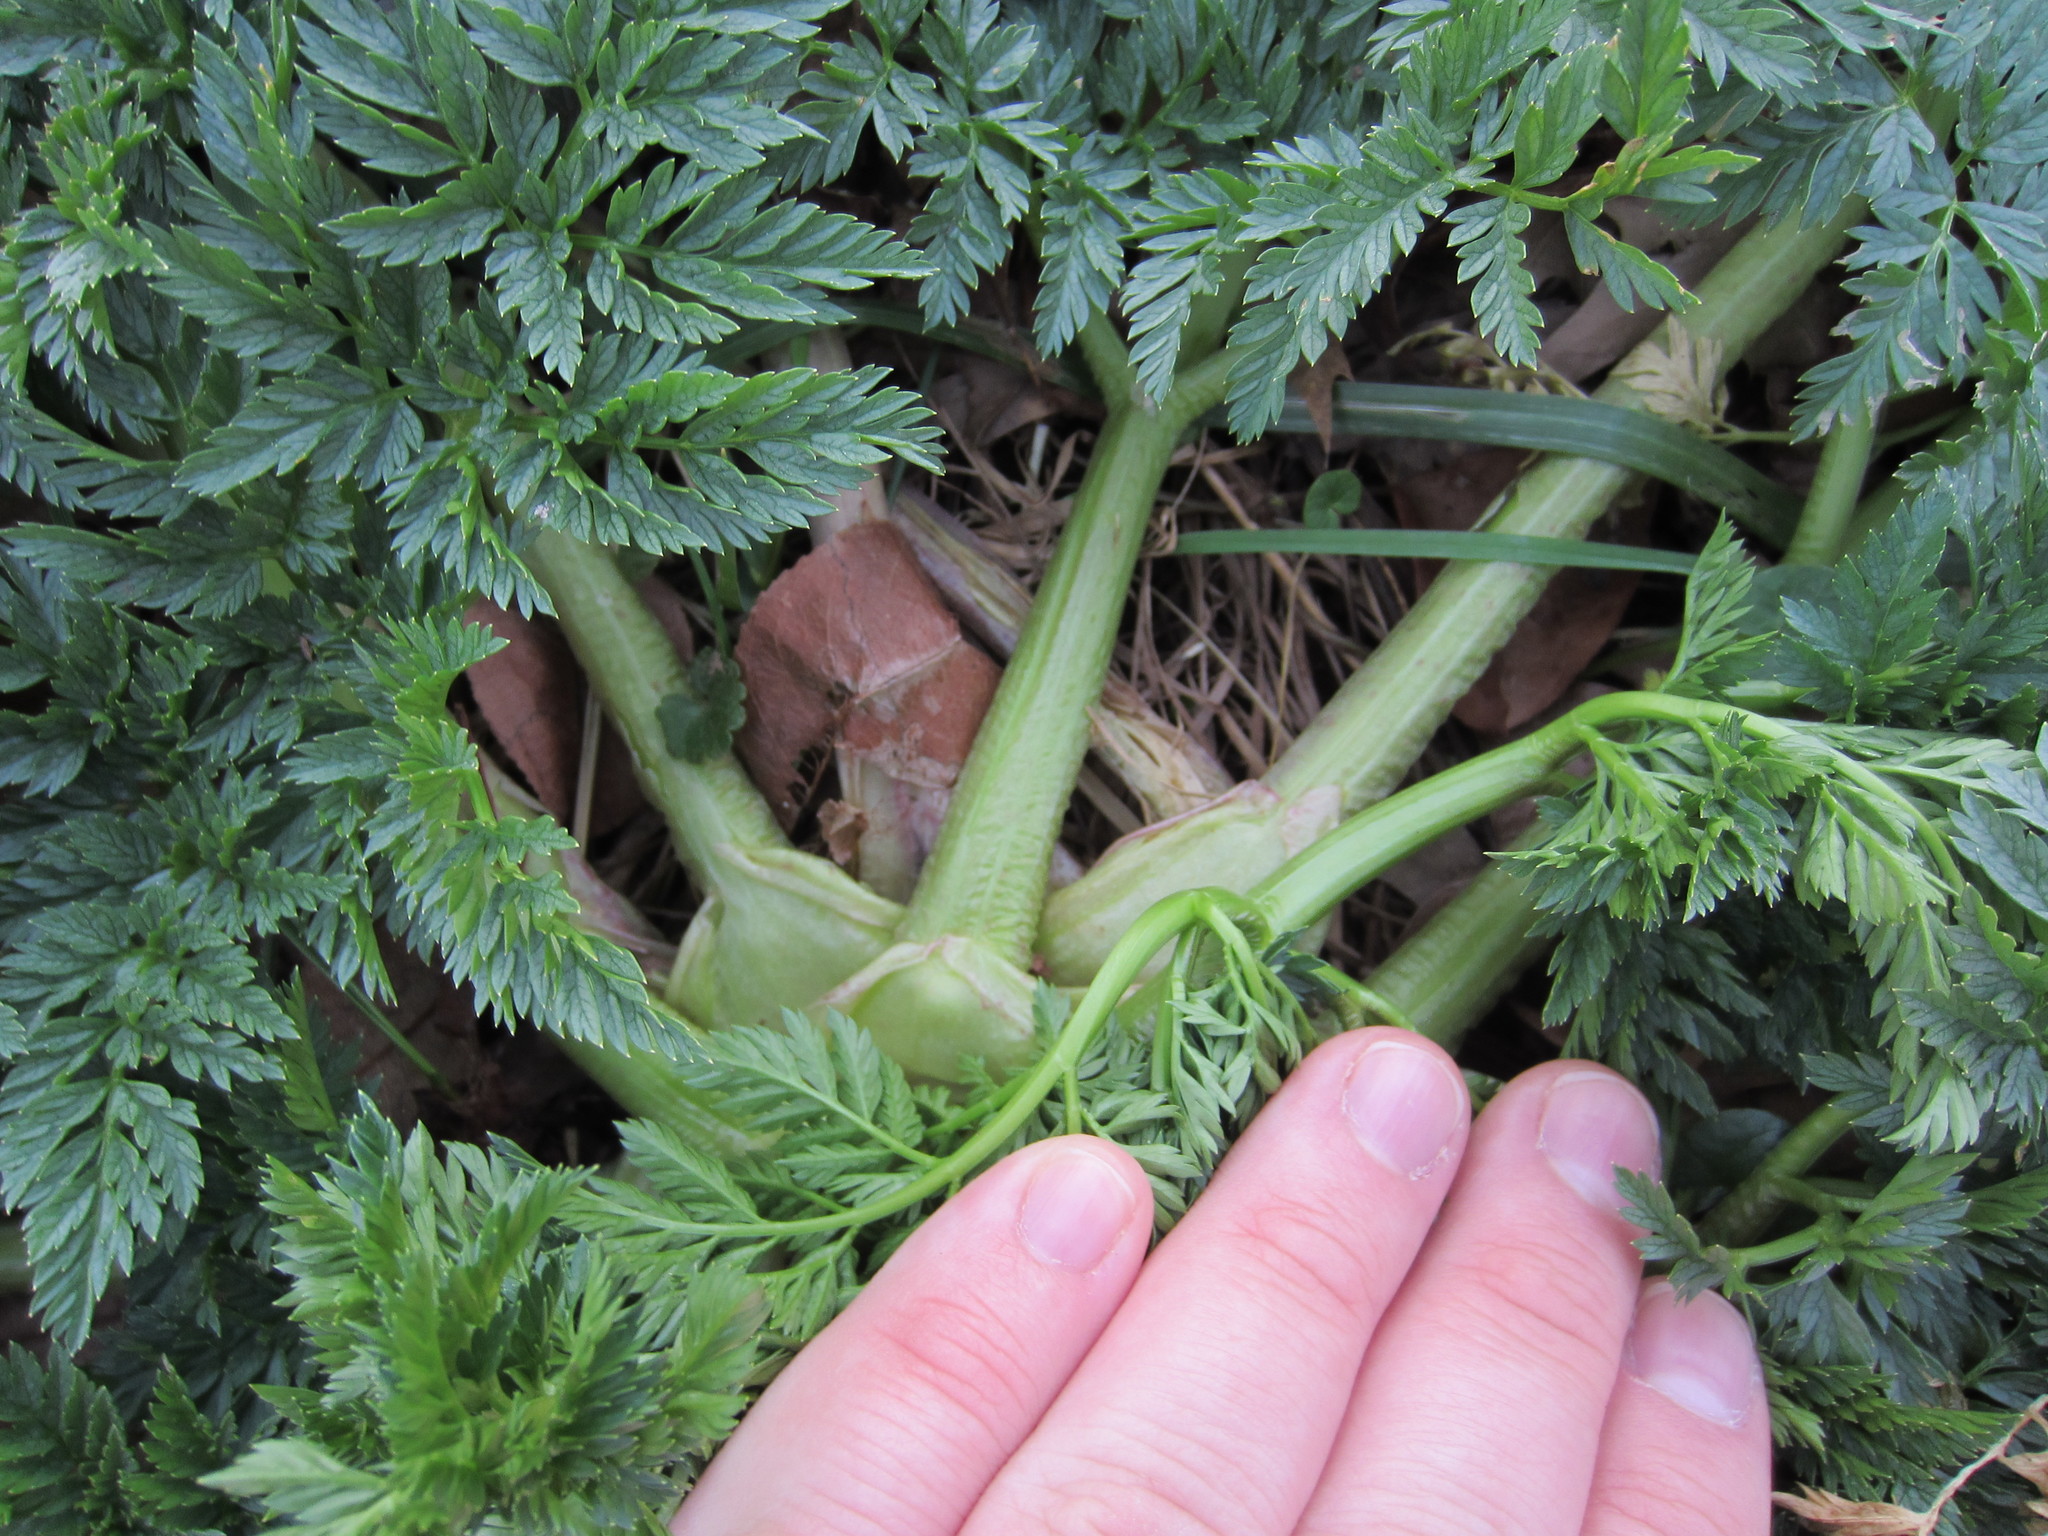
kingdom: Plantae
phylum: Tracheophyta
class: Magnoliopsida
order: Apiales
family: Apiaceae
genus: Conium
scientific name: Conium maculatum
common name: Hemlock
